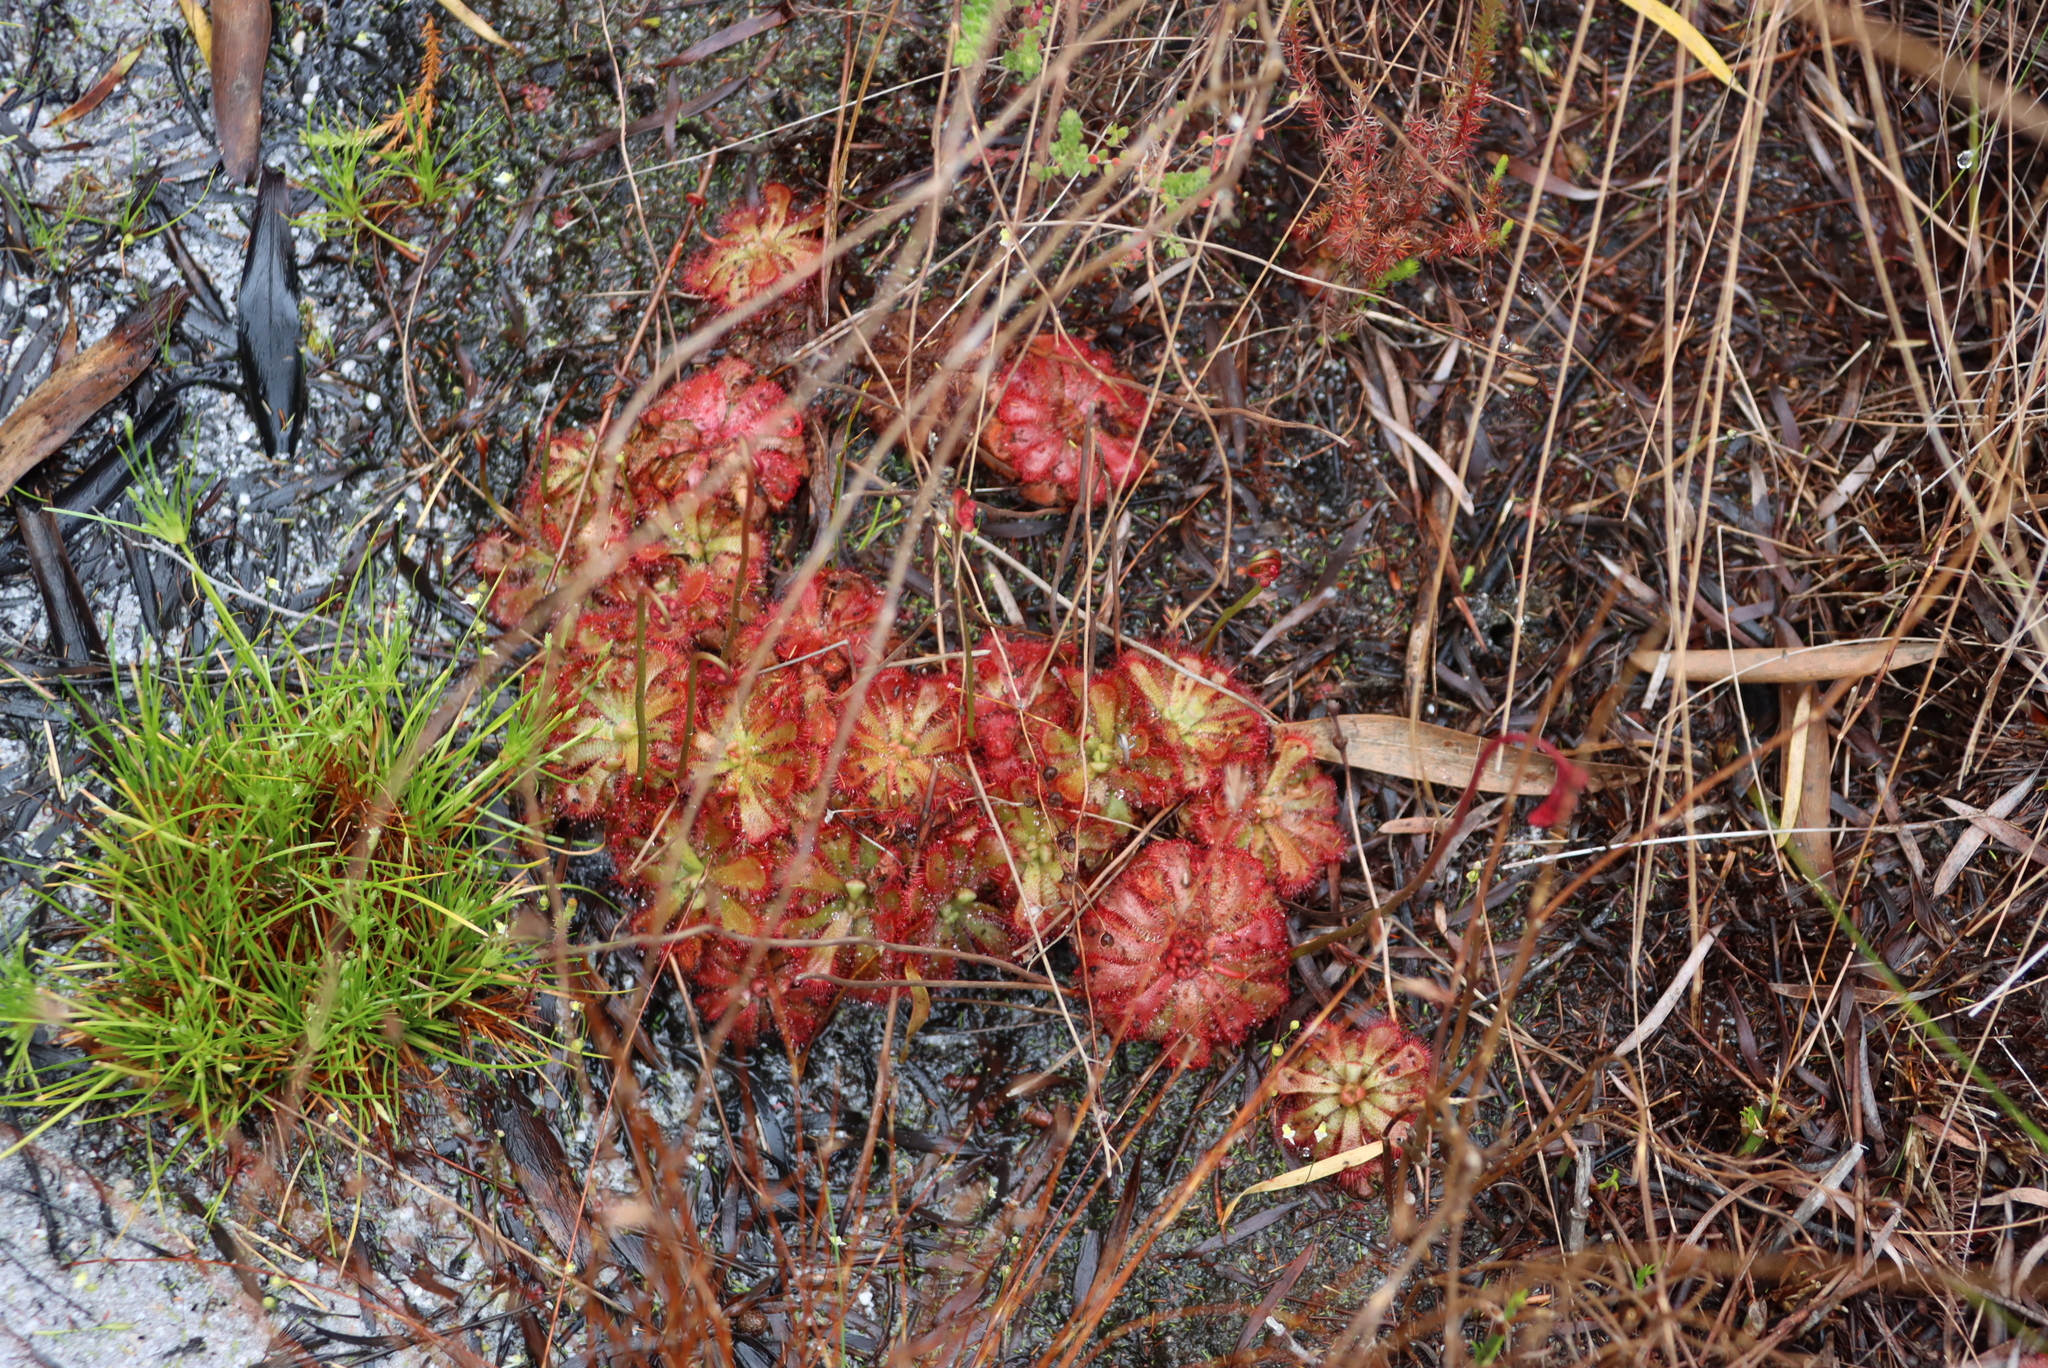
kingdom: Plantae
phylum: Tracheophyta
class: Magnoliopsida
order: Caryophyllales
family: Droseraceae
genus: Drosera
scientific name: Drosera aliciae
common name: Alice sundew
